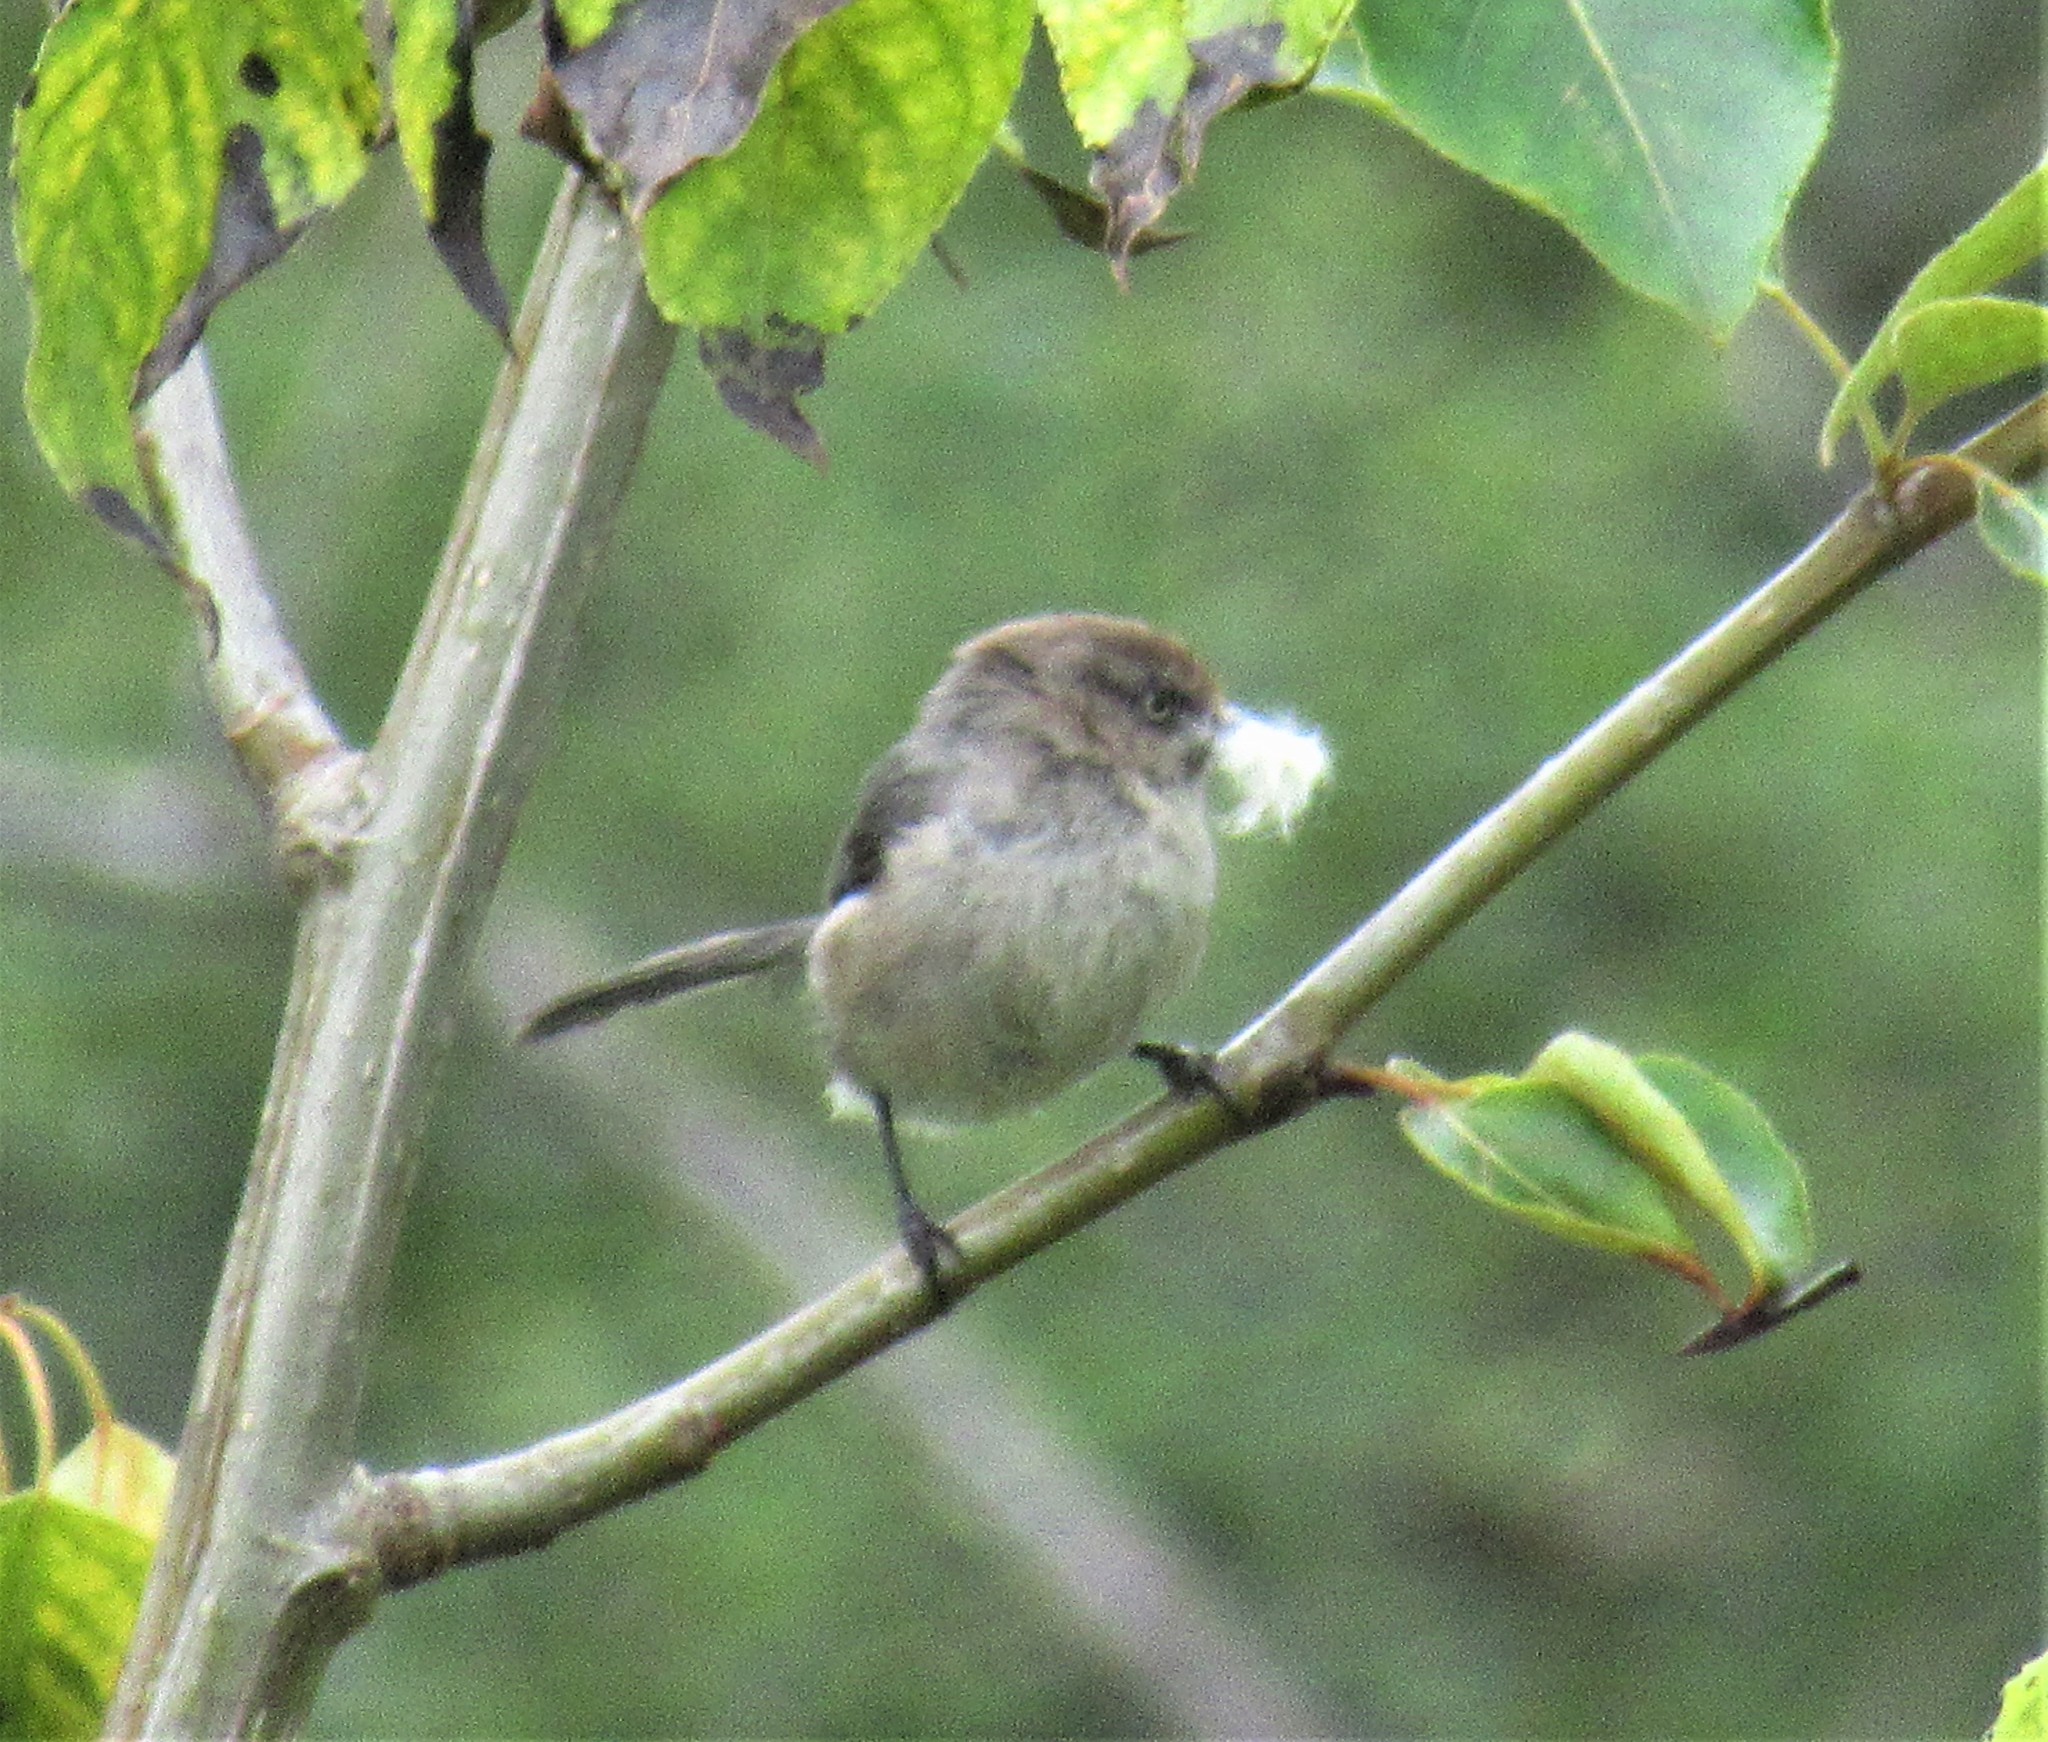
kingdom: Animalia
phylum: Chordata
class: Aves
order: Passeriformes
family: Aegithalidae
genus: Psaltriparus
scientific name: Psaltriparus minimus
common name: American bushtit
